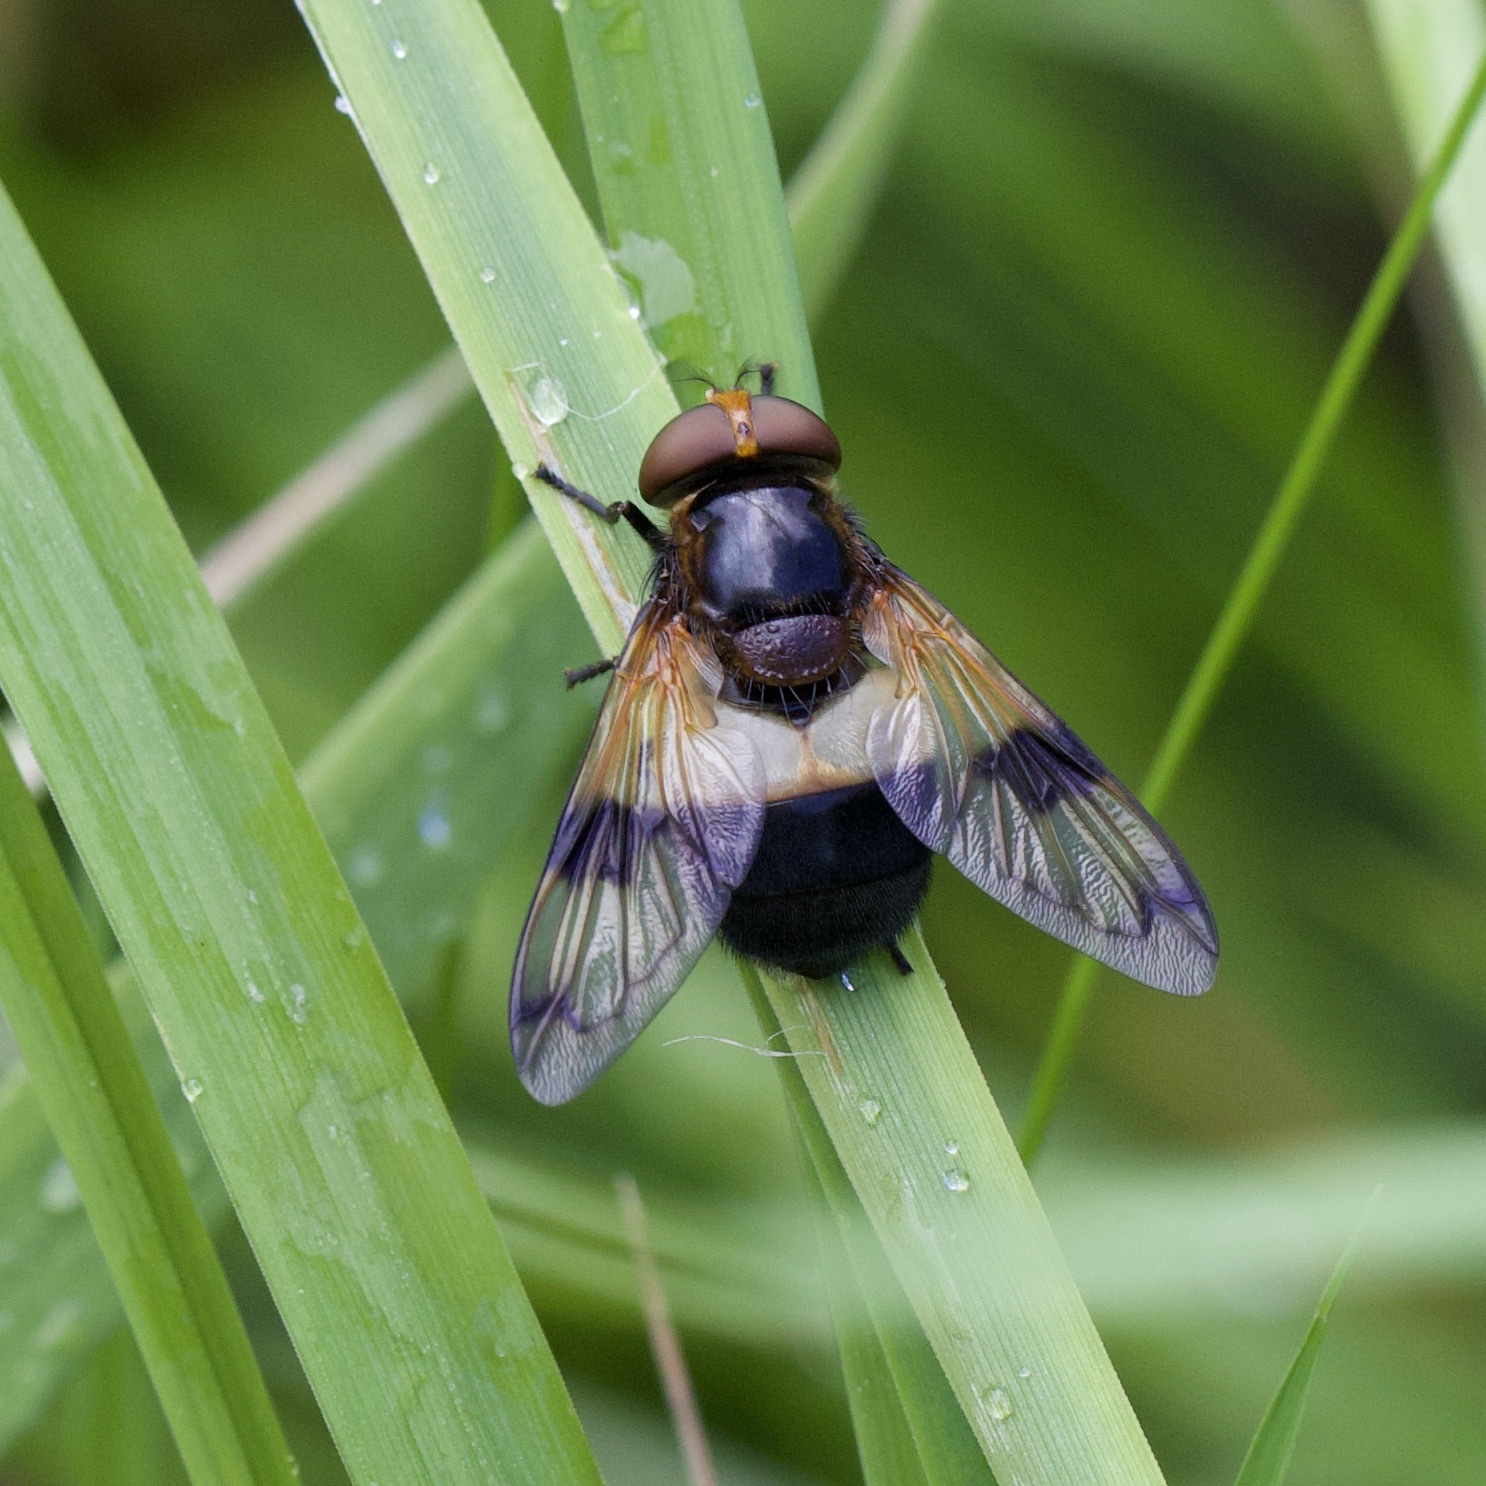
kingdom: Animalia
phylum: Arthropoda
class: Insecta
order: Diptera
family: Syrphidae
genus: Volucella
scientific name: Volucella pellucens
